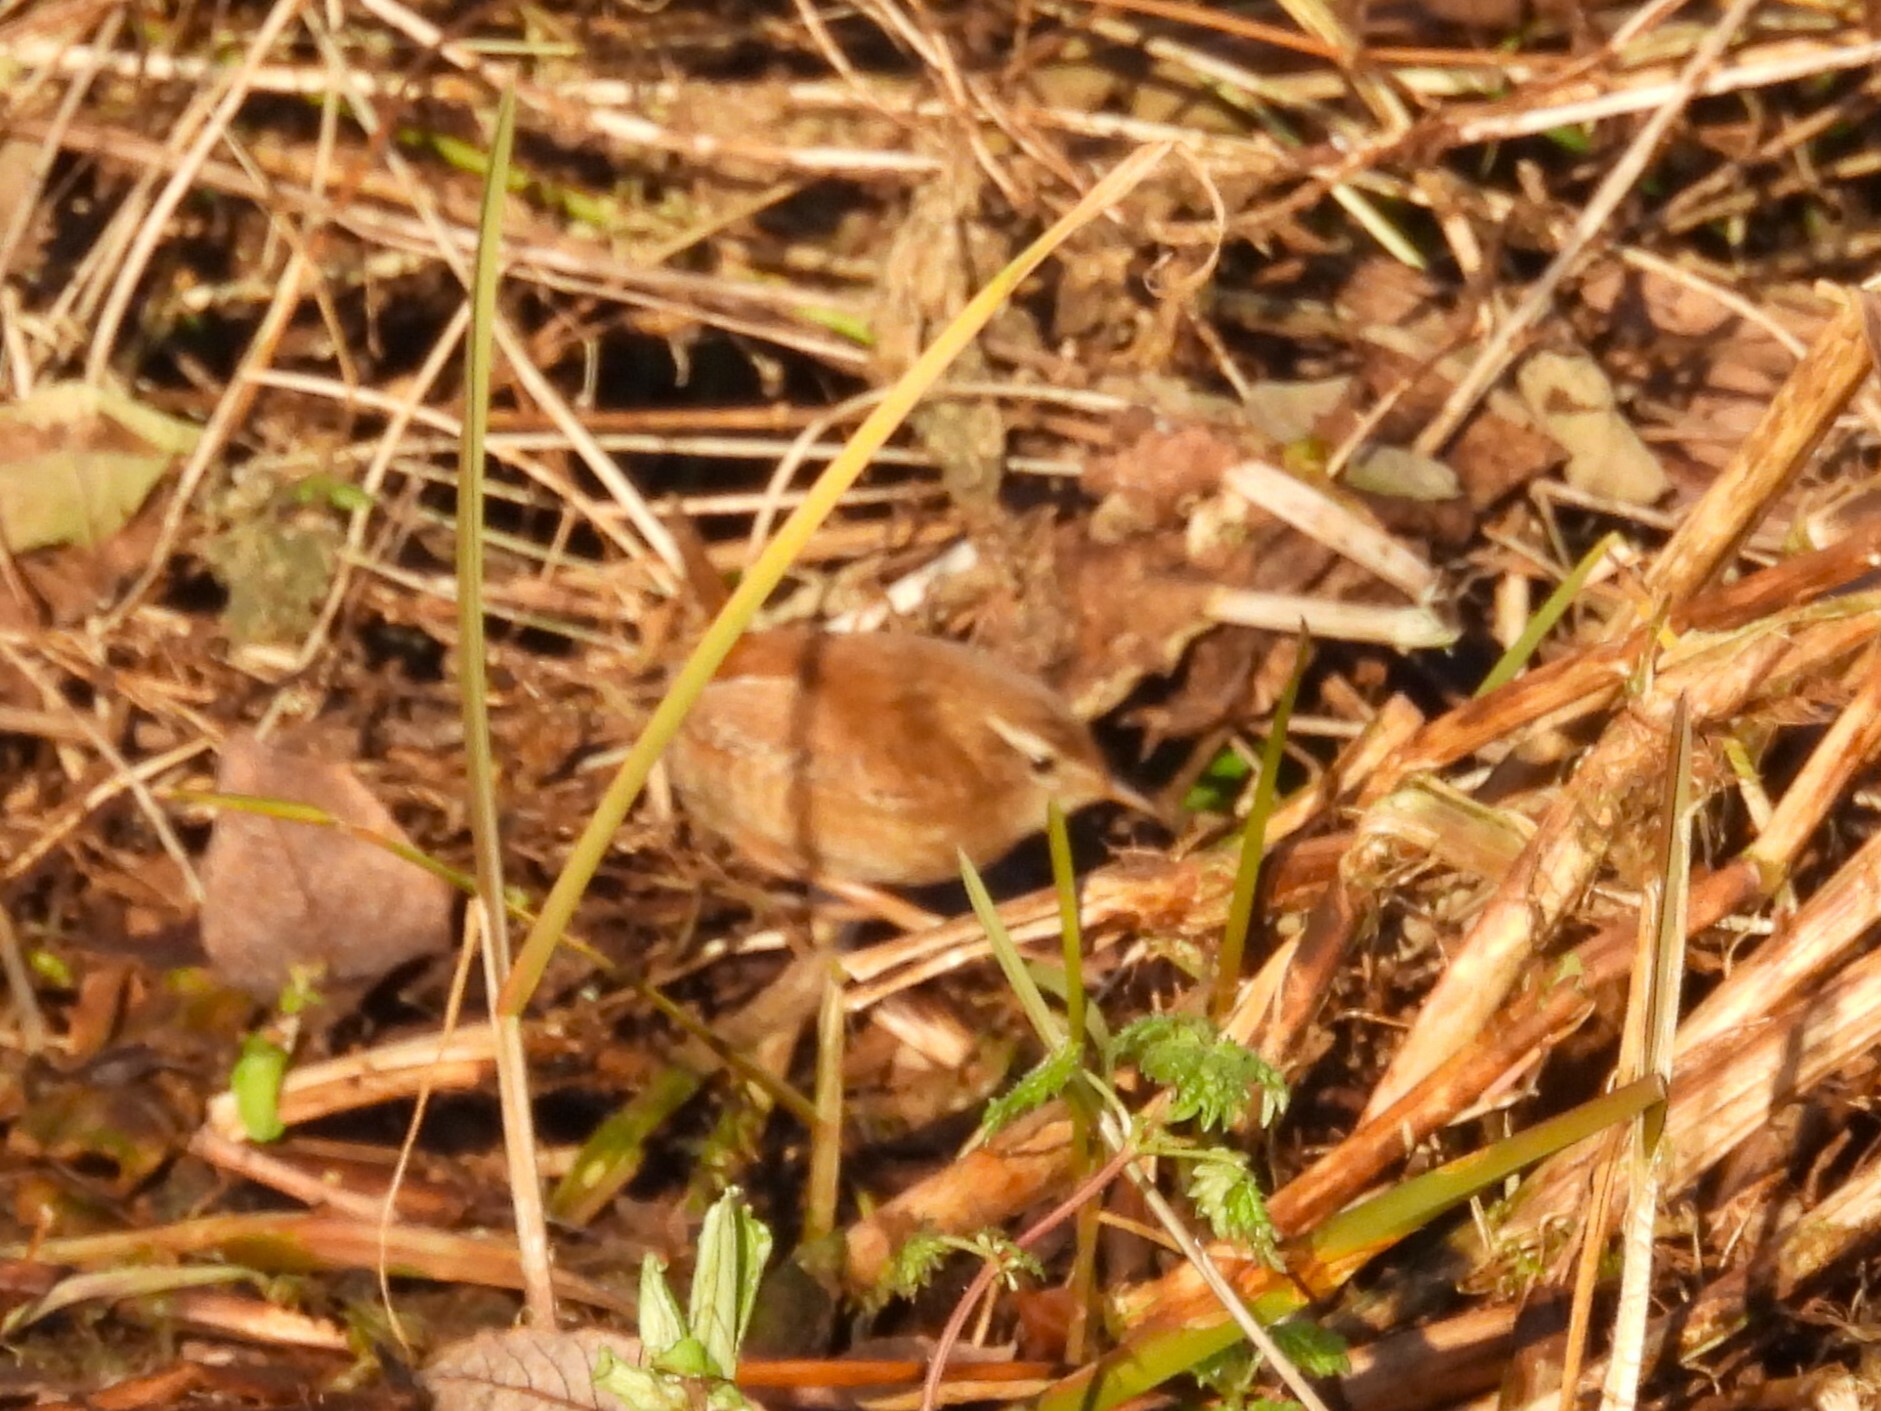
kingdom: Animalia
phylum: Chordata
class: Aves
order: Passeriformes
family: Troglodytidae
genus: Troglodytes
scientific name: Troglodytes troglodytes
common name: Eurasian wren
